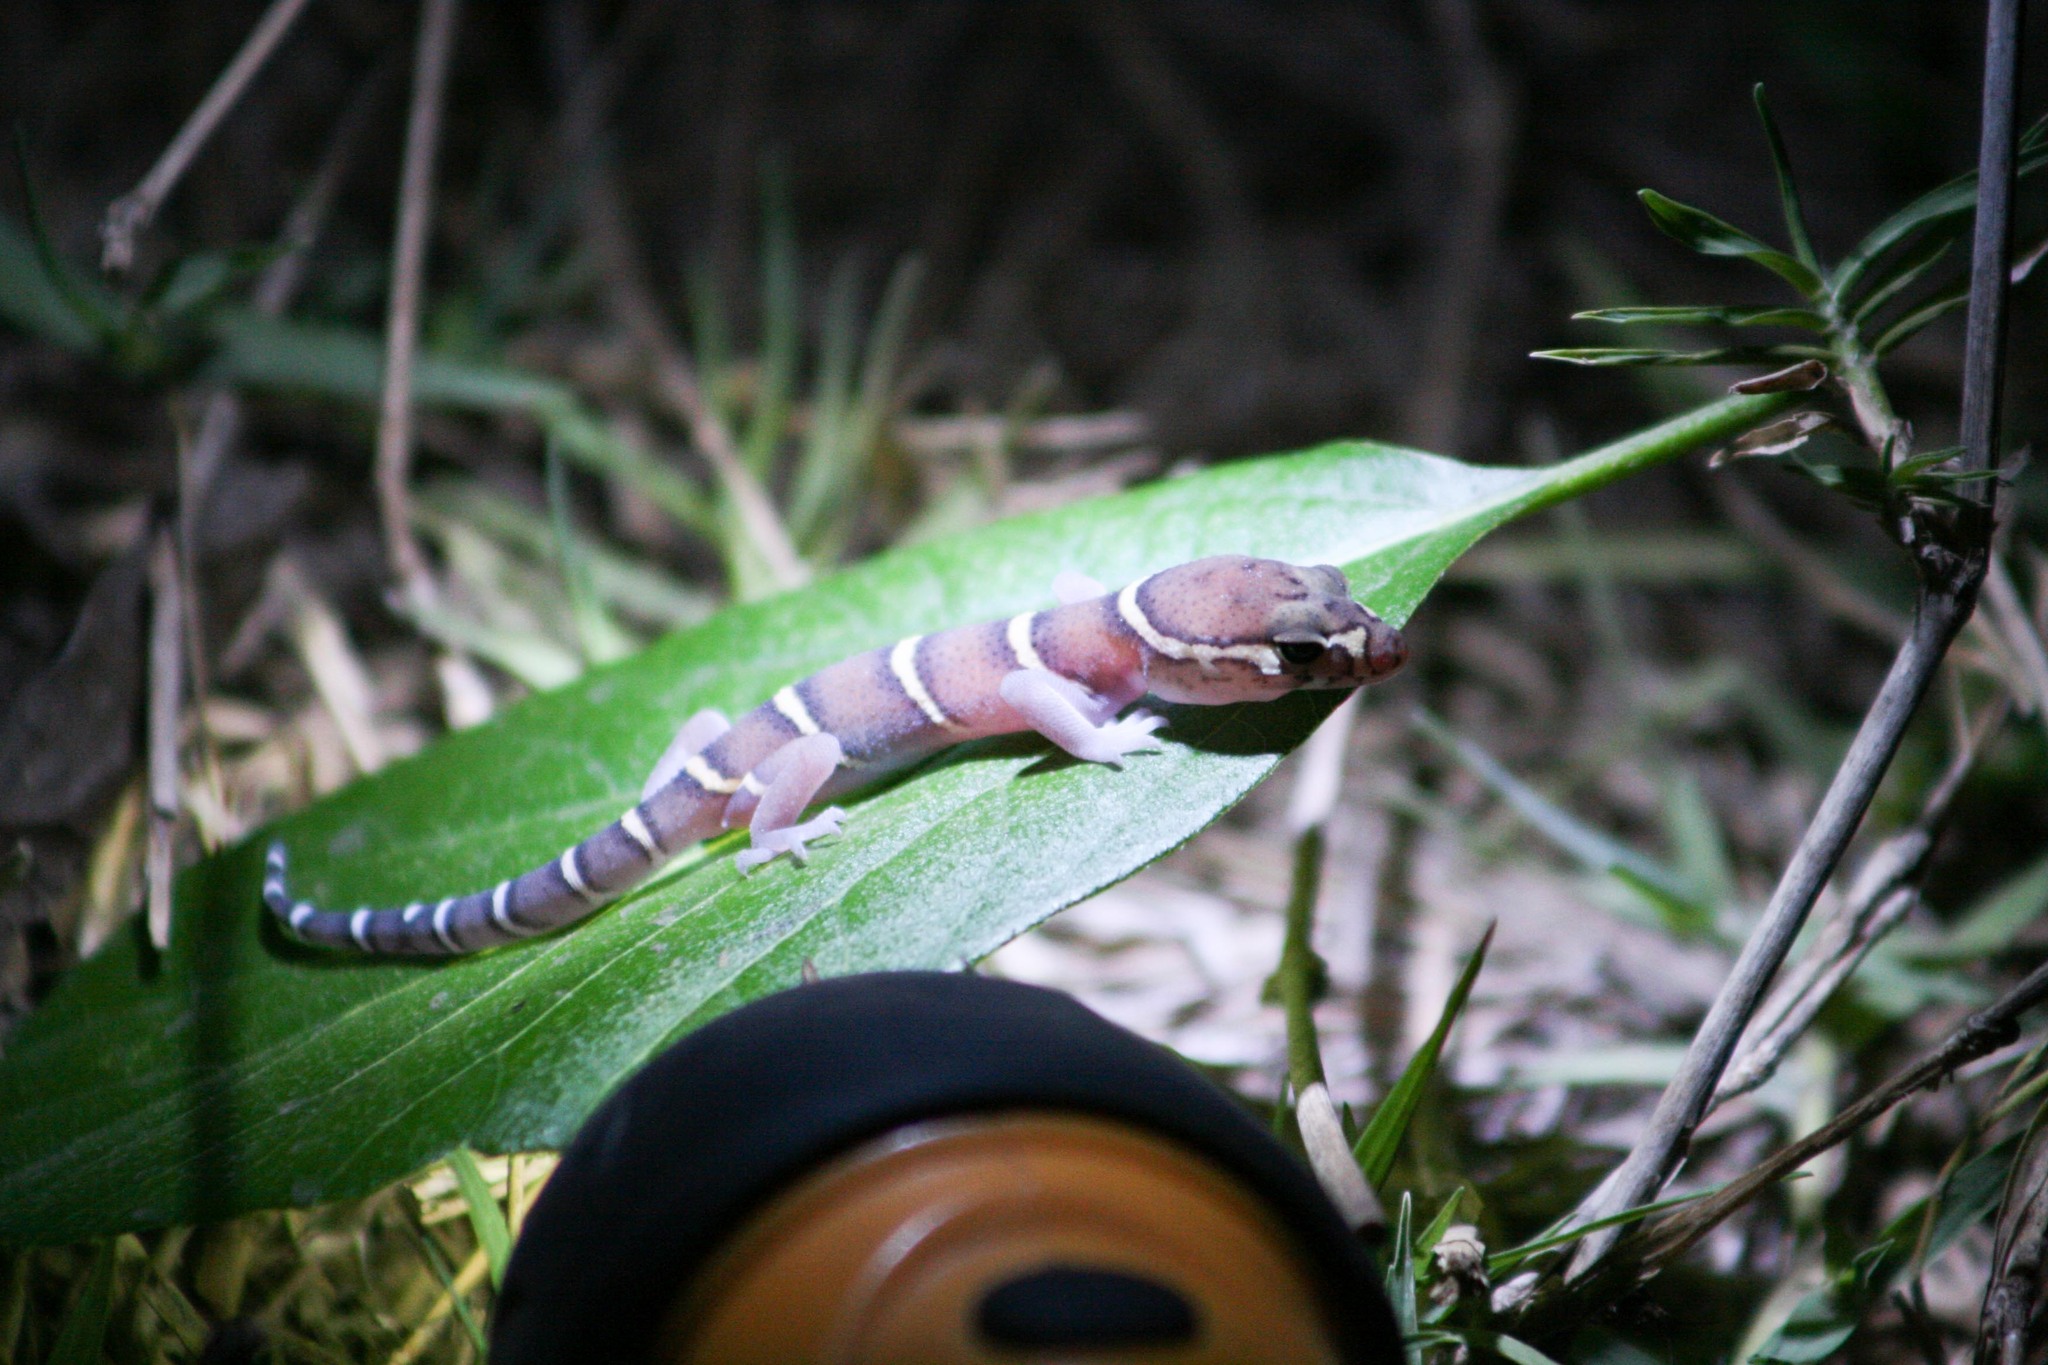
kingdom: Animalia
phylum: Chordata
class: Squamata
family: Eublepharidae
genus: Coleonyx
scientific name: Coleonyx mitratus
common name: Central american banded gecko
